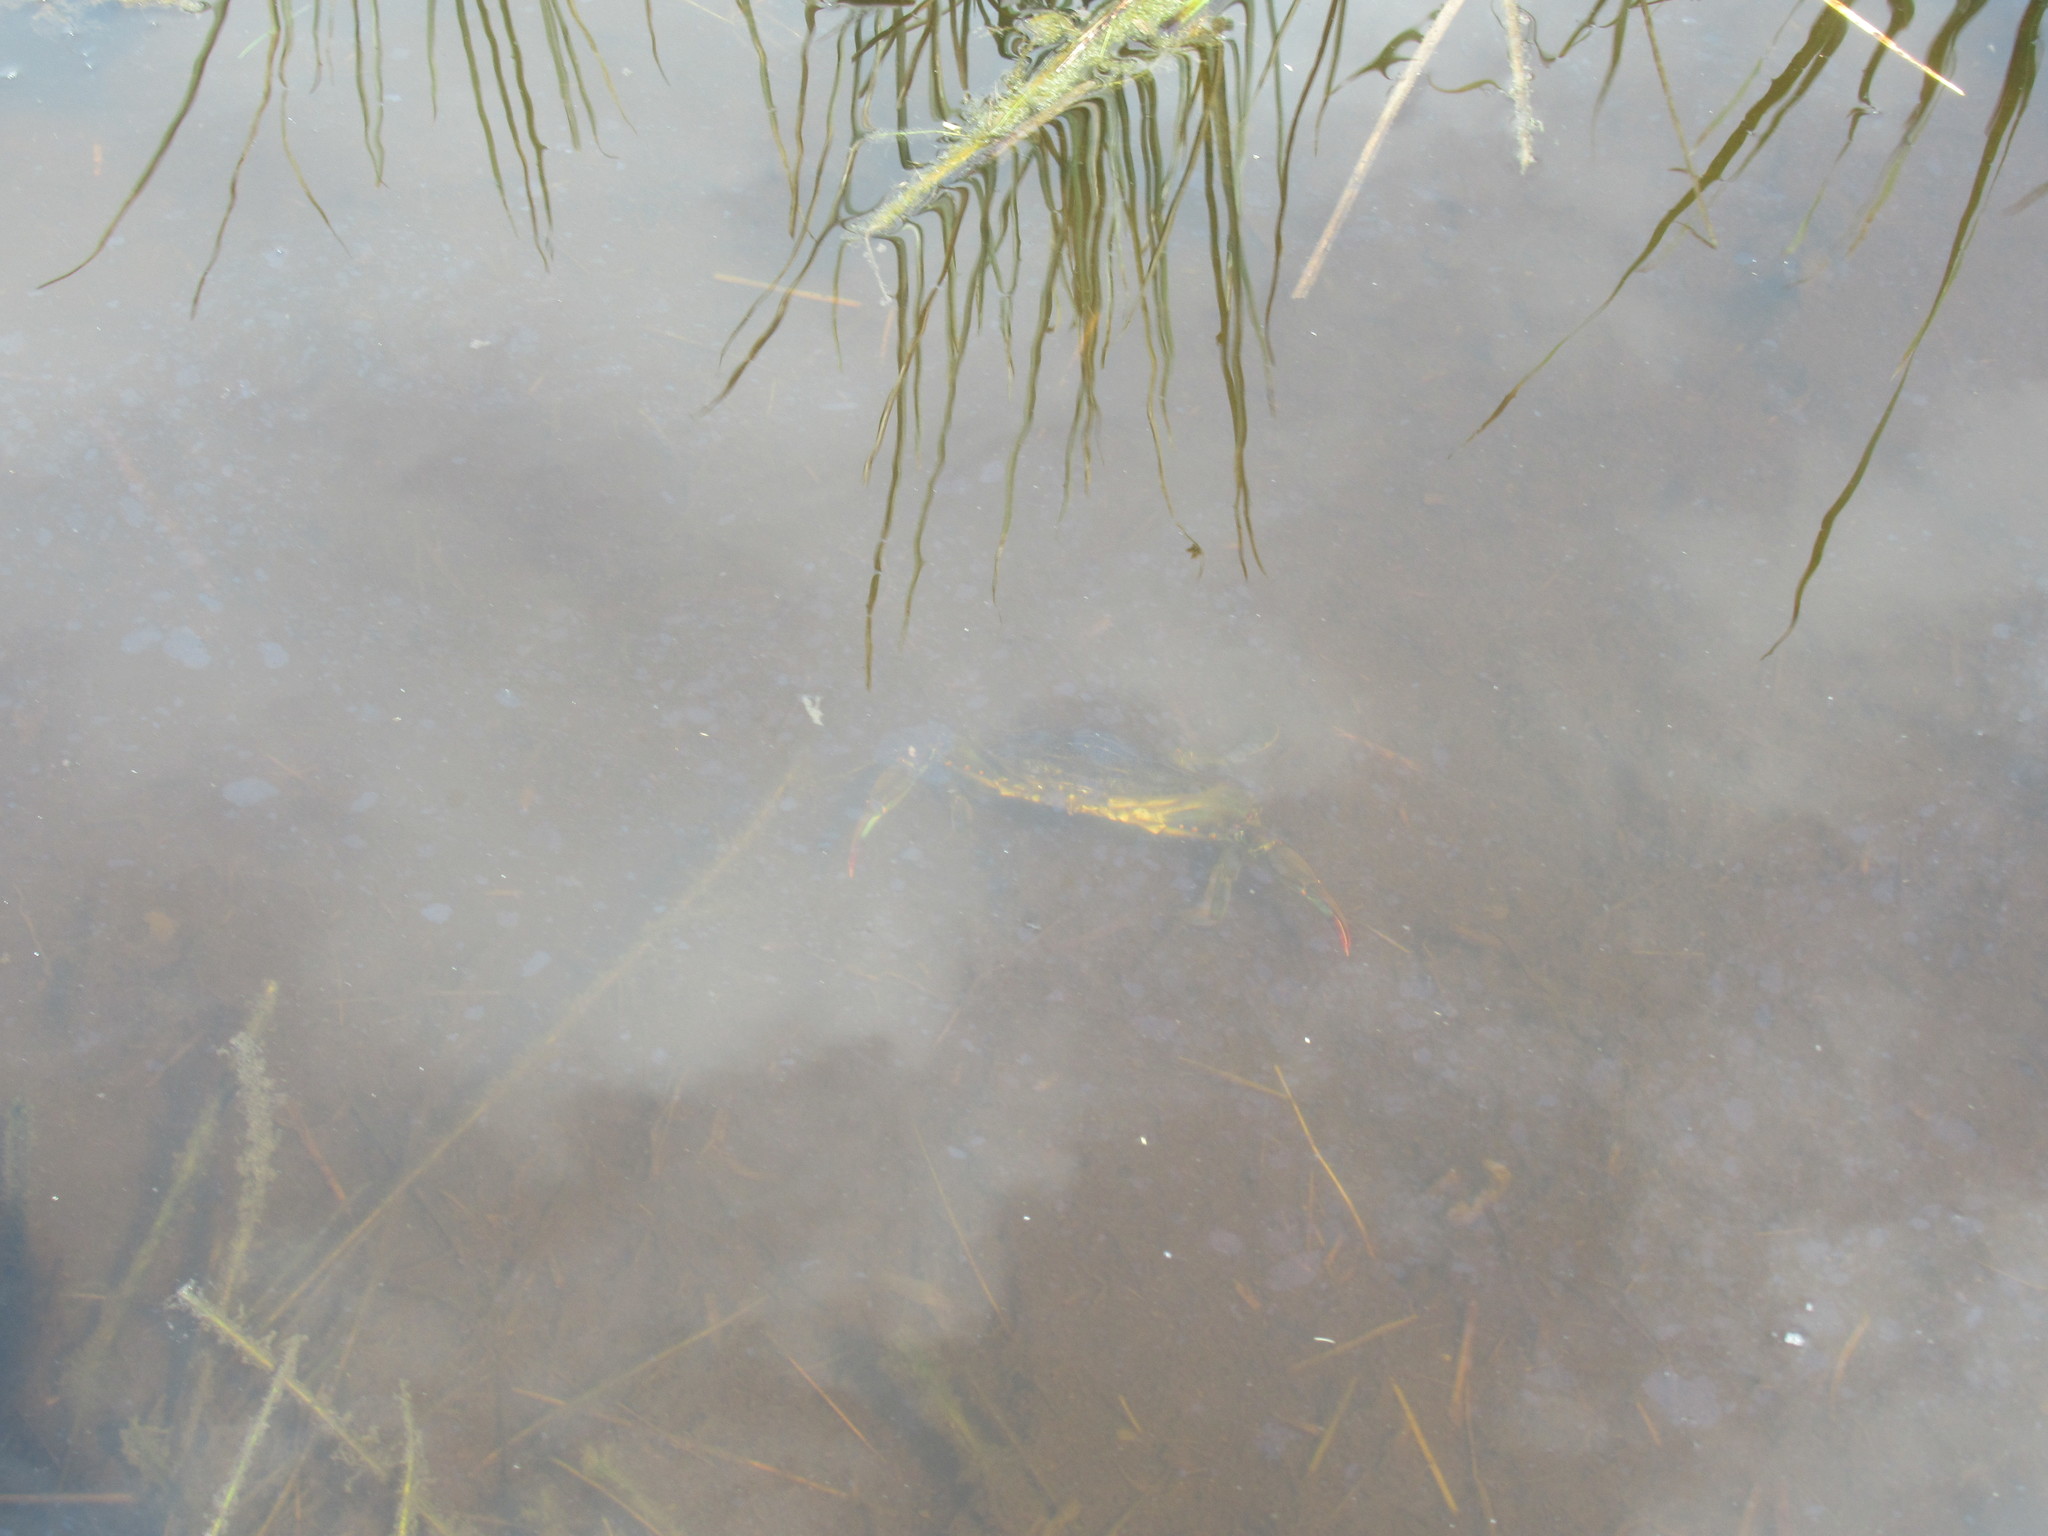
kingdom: Animalia
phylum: Arthropoda
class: Malacostraca
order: Decapoda
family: Portunidae
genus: Callinectes
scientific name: Callinectes sapidus
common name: Blue crab
